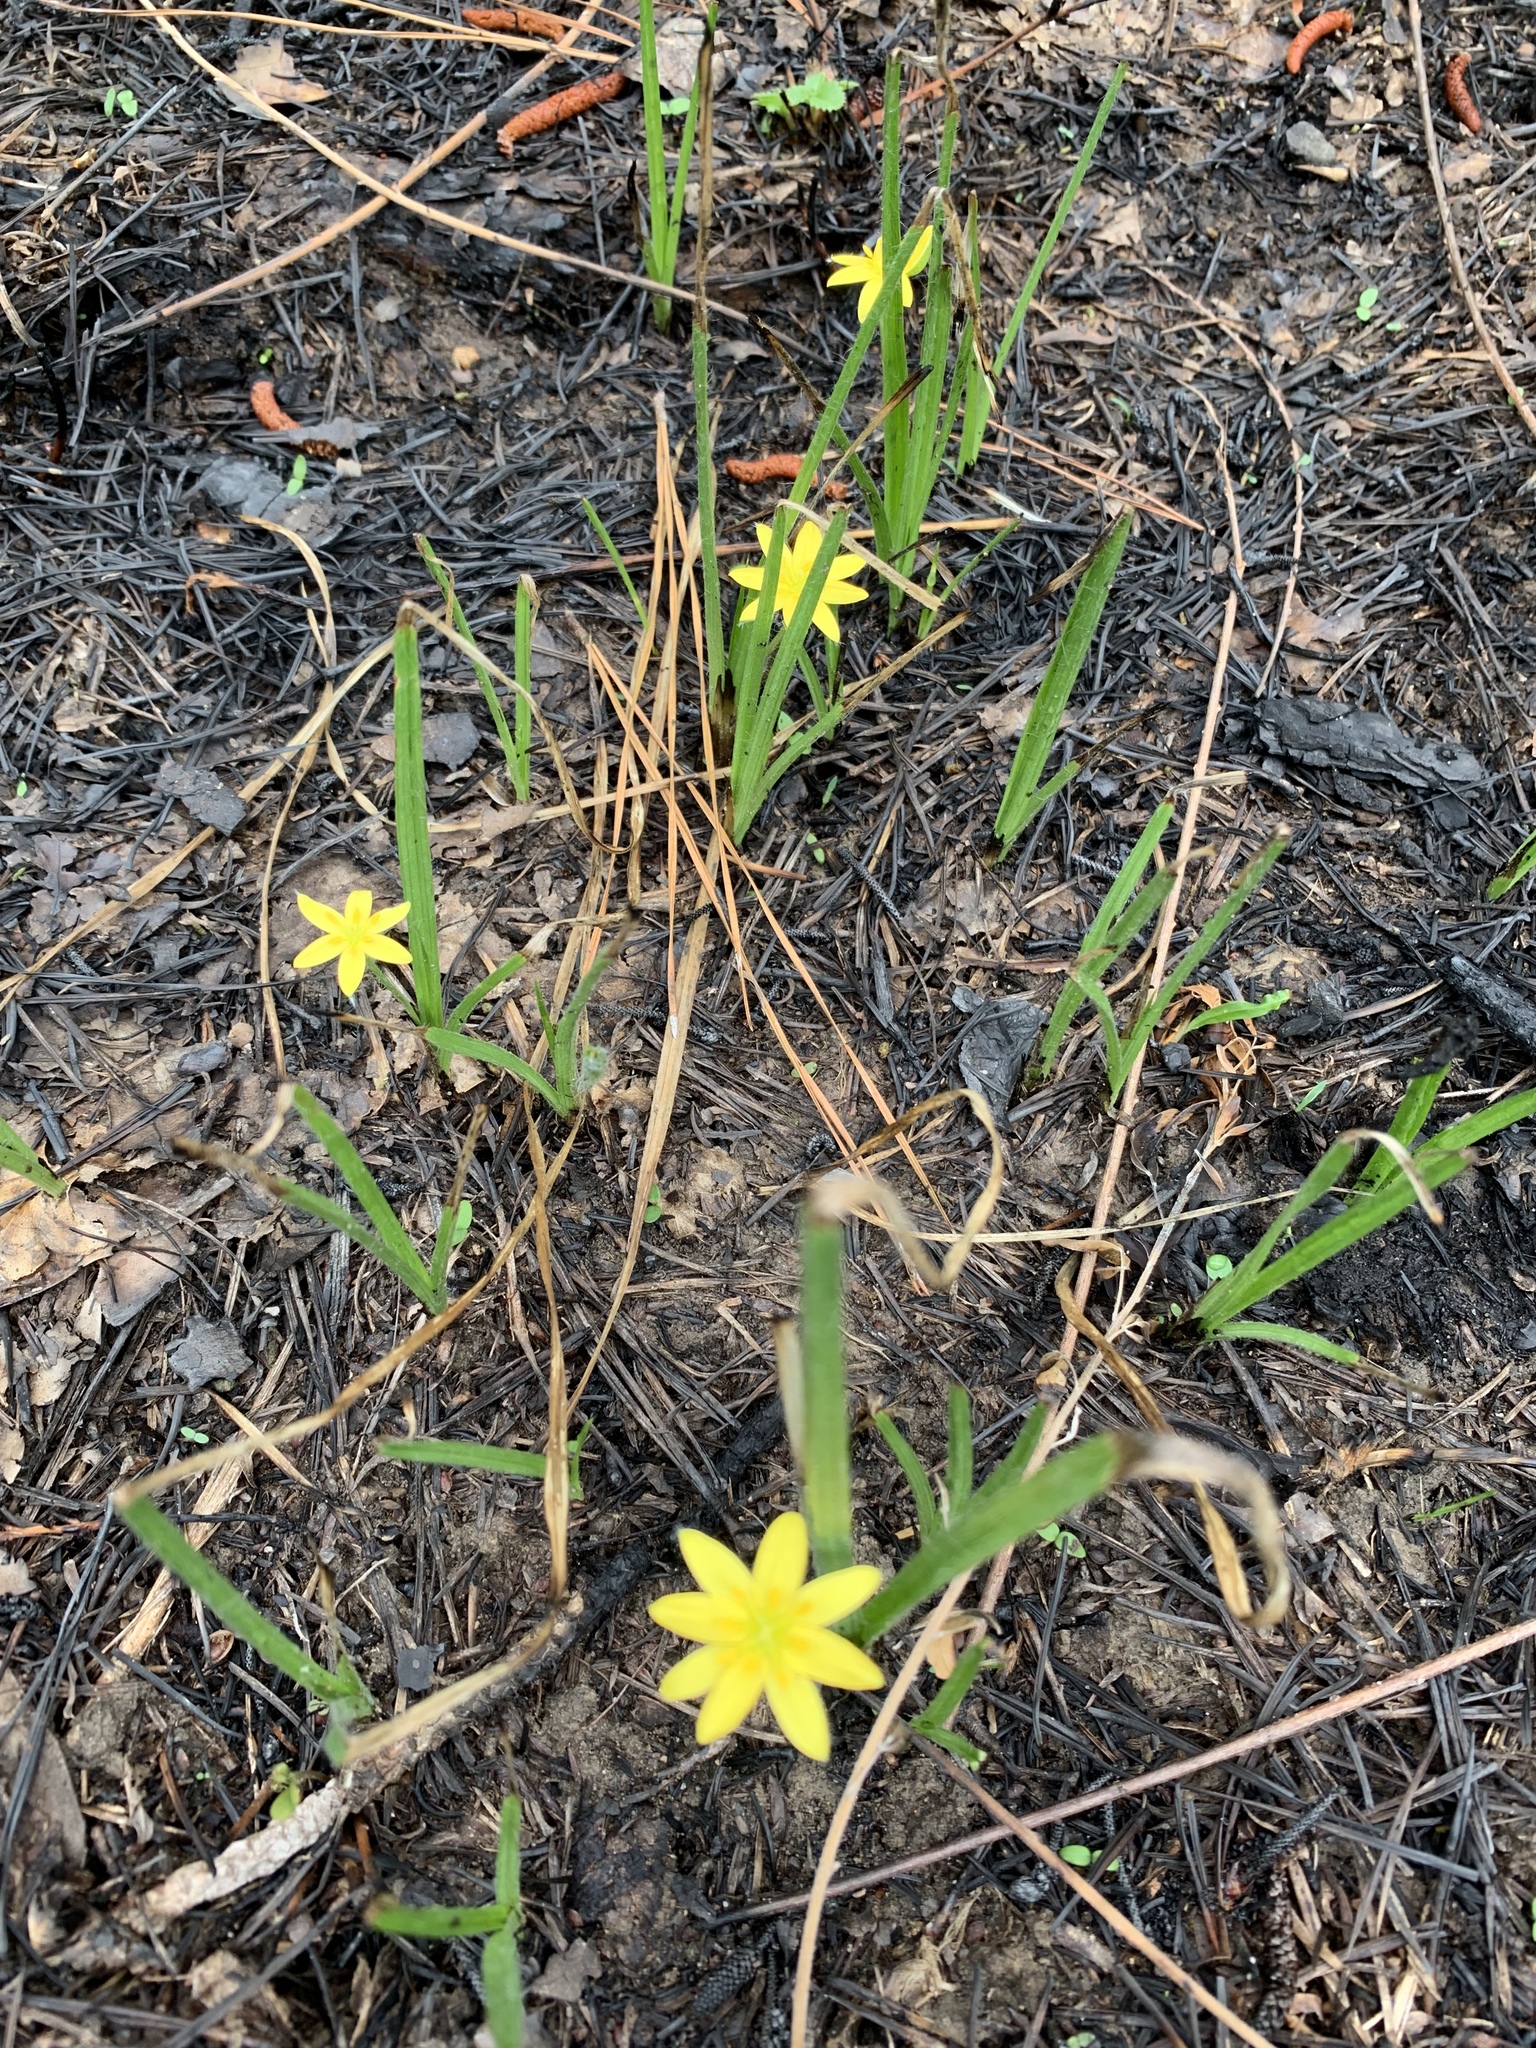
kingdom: Plantae
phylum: Tracheophyta
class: Liliopsida
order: Asparagales
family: Hypoxidaceae
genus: Hypoxis
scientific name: Hypoxis hirsuta
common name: Common goldstar
